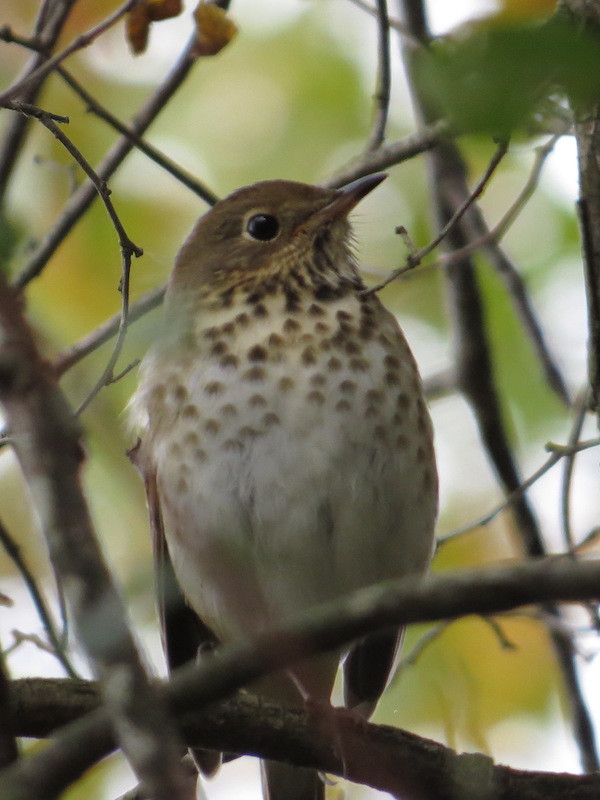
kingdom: Animalia
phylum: Chordata
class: Aves
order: Passeriformes
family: Turdidae
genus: Catharus
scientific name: Catharus guttatus
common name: Hermit thrush
